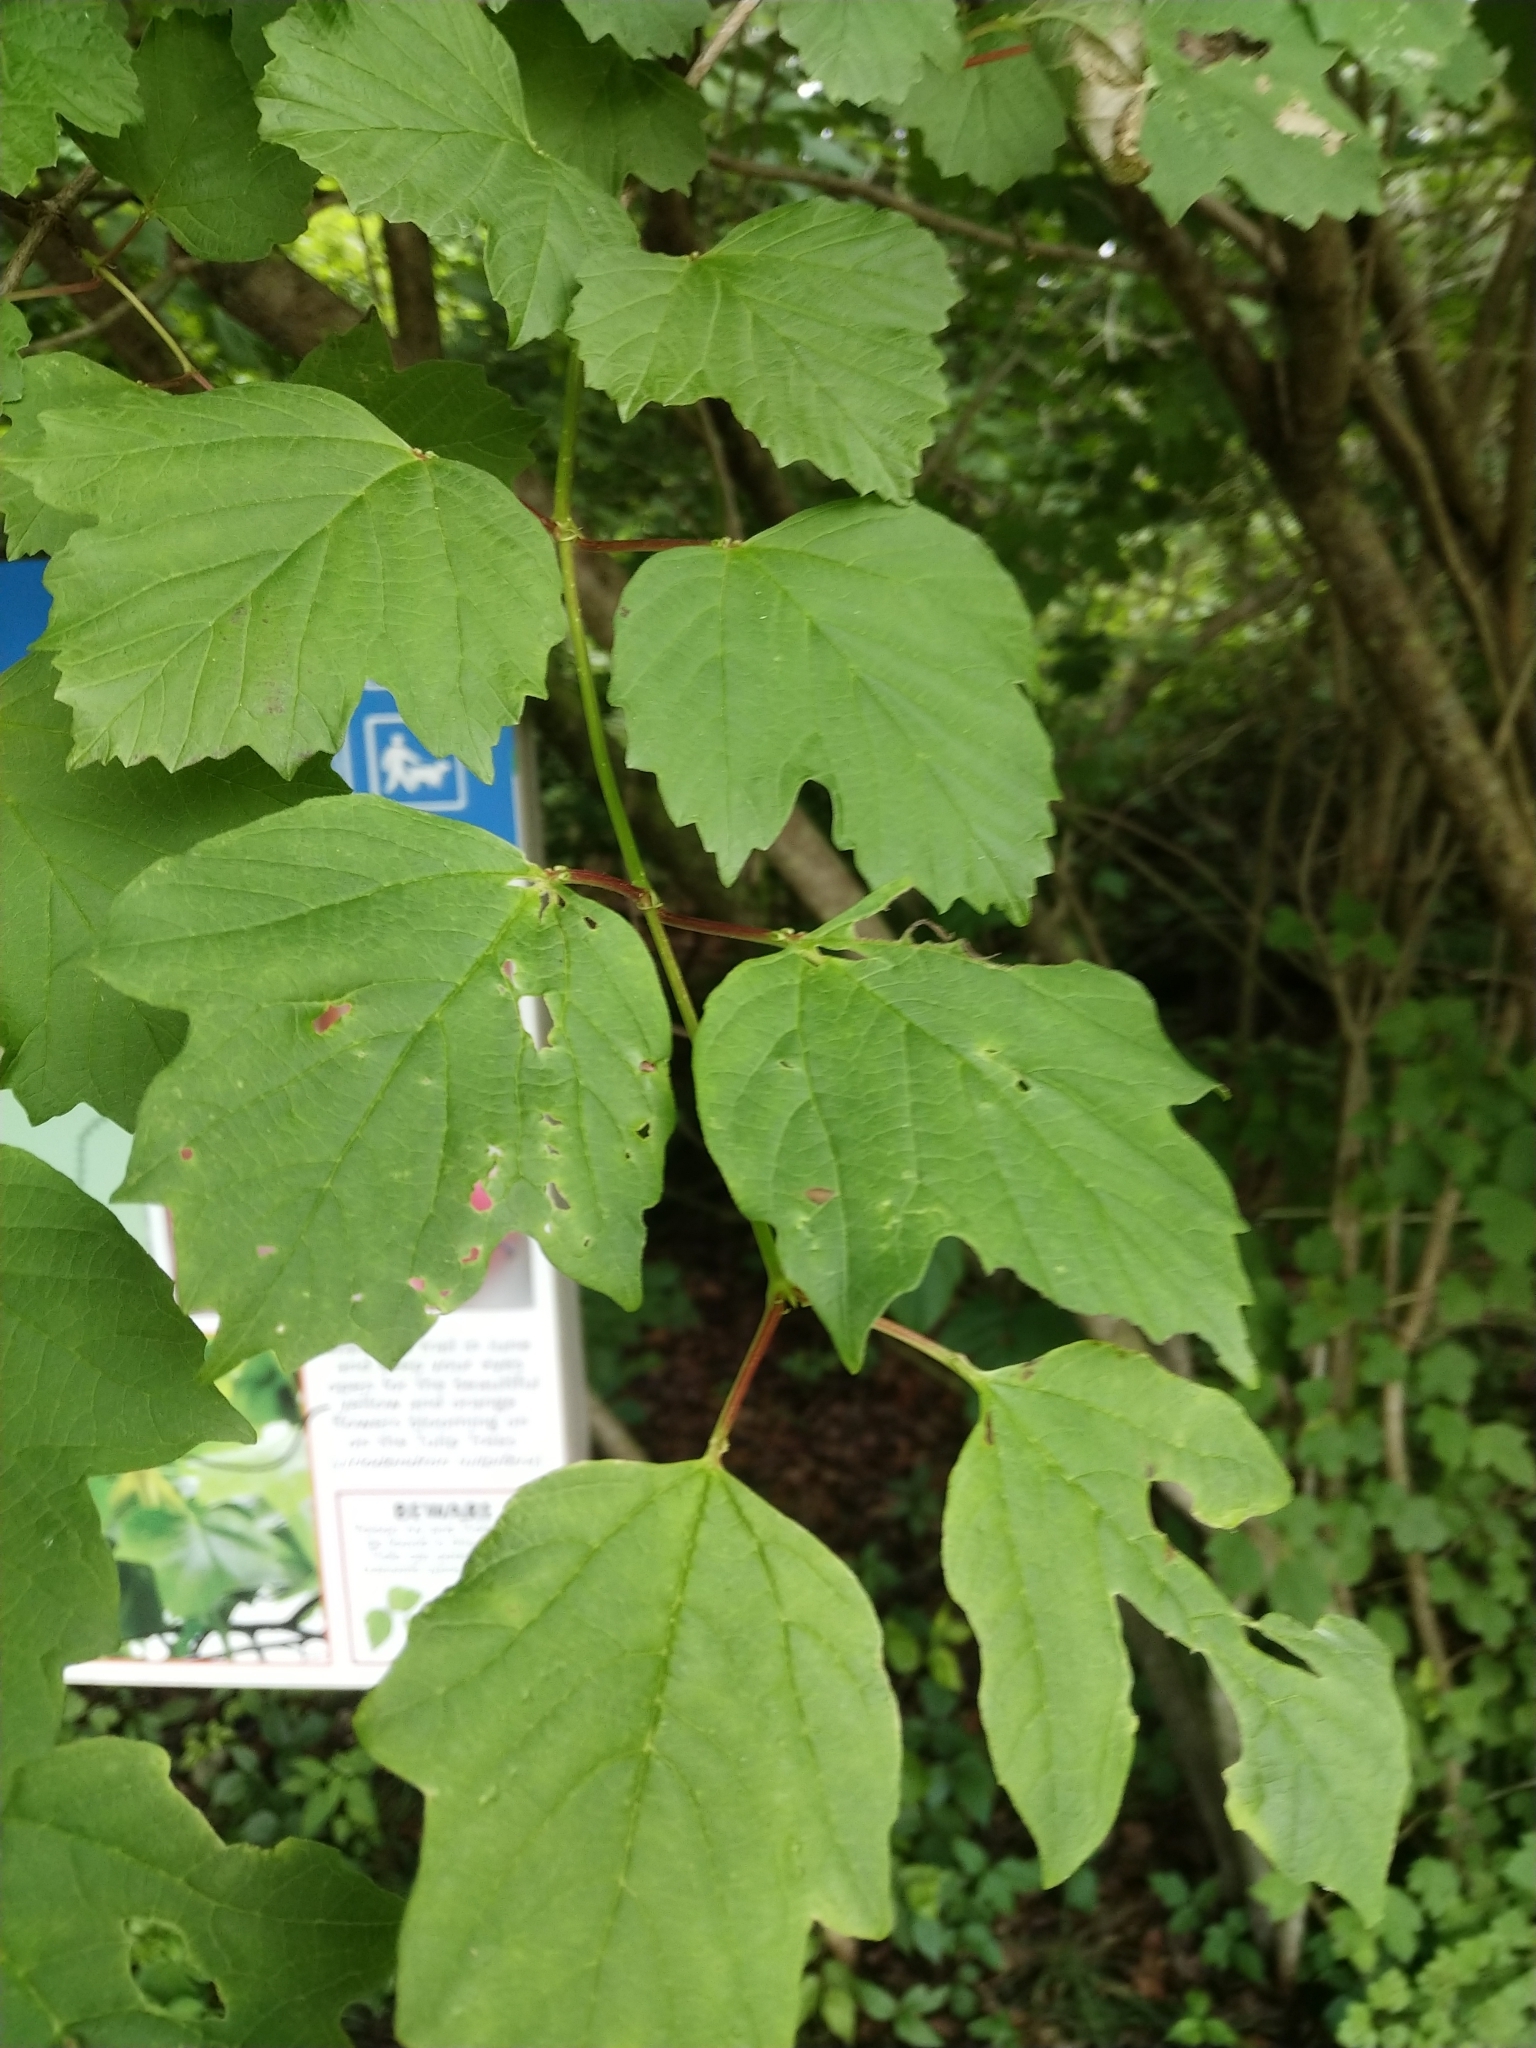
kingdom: Plantae
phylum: Tracheophyta
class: Magnoliopsida
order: Dipsacales
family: Viburnaceae
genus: Viburnum
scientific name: Viburnum opulus
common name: Guelder-rose
